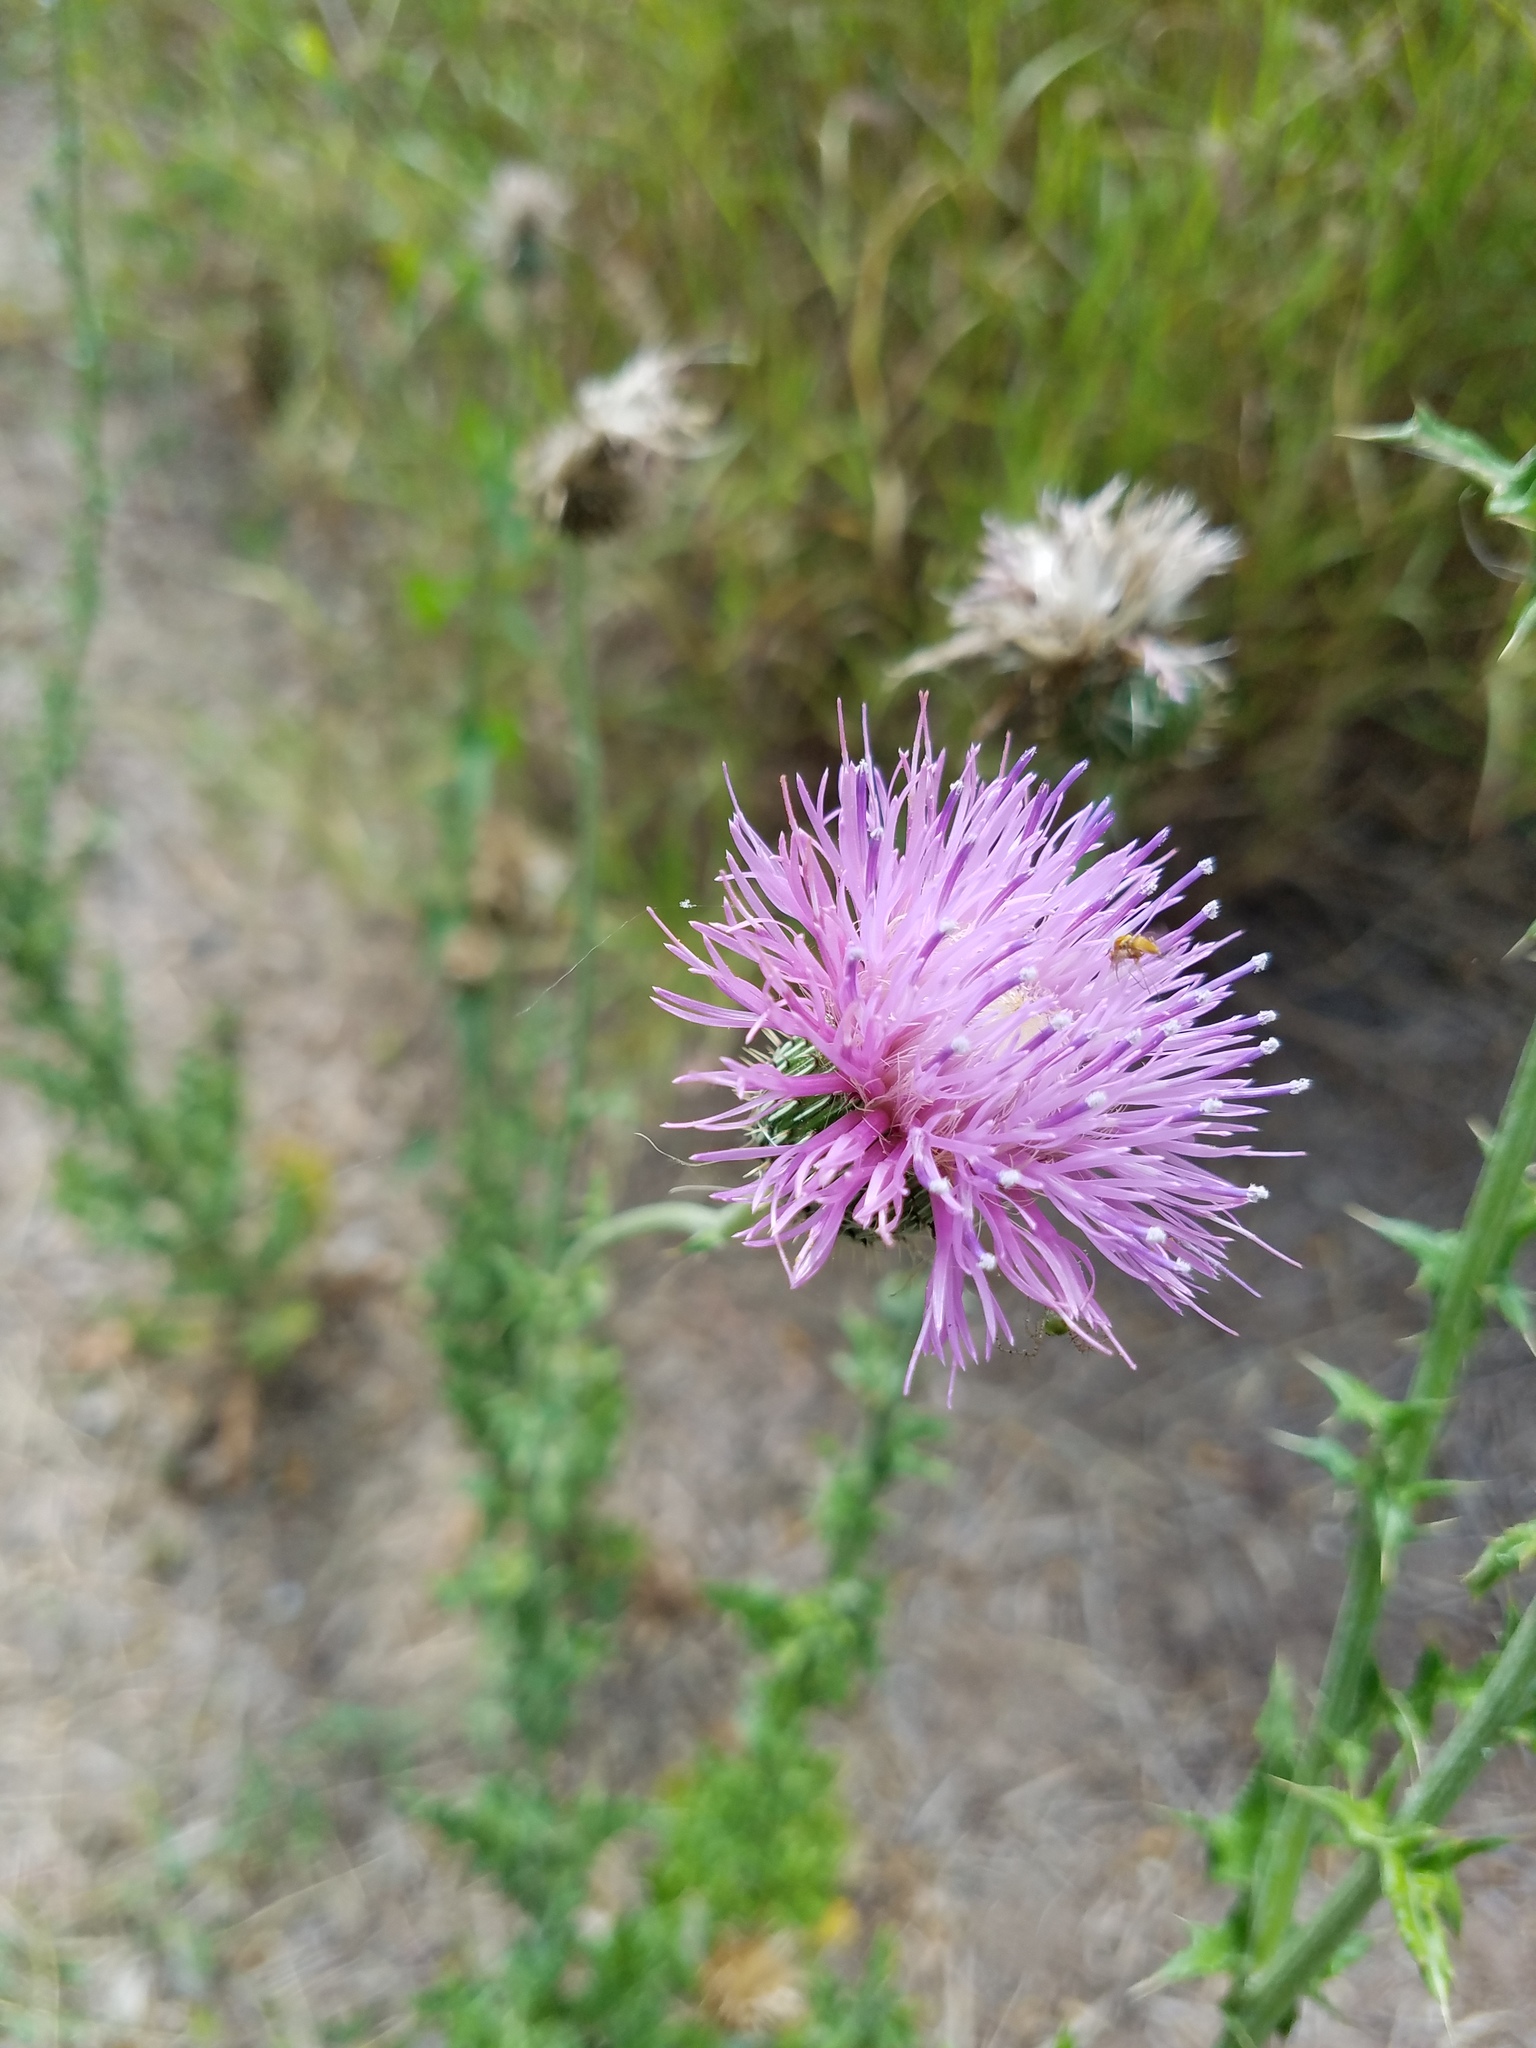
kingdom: Plantae
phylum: Tracheophyta
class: Magnoliopsida
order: Asterales
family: Asteraceae
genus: Cirsium
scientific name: Cirsium texanum
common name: Texas purple thistle
